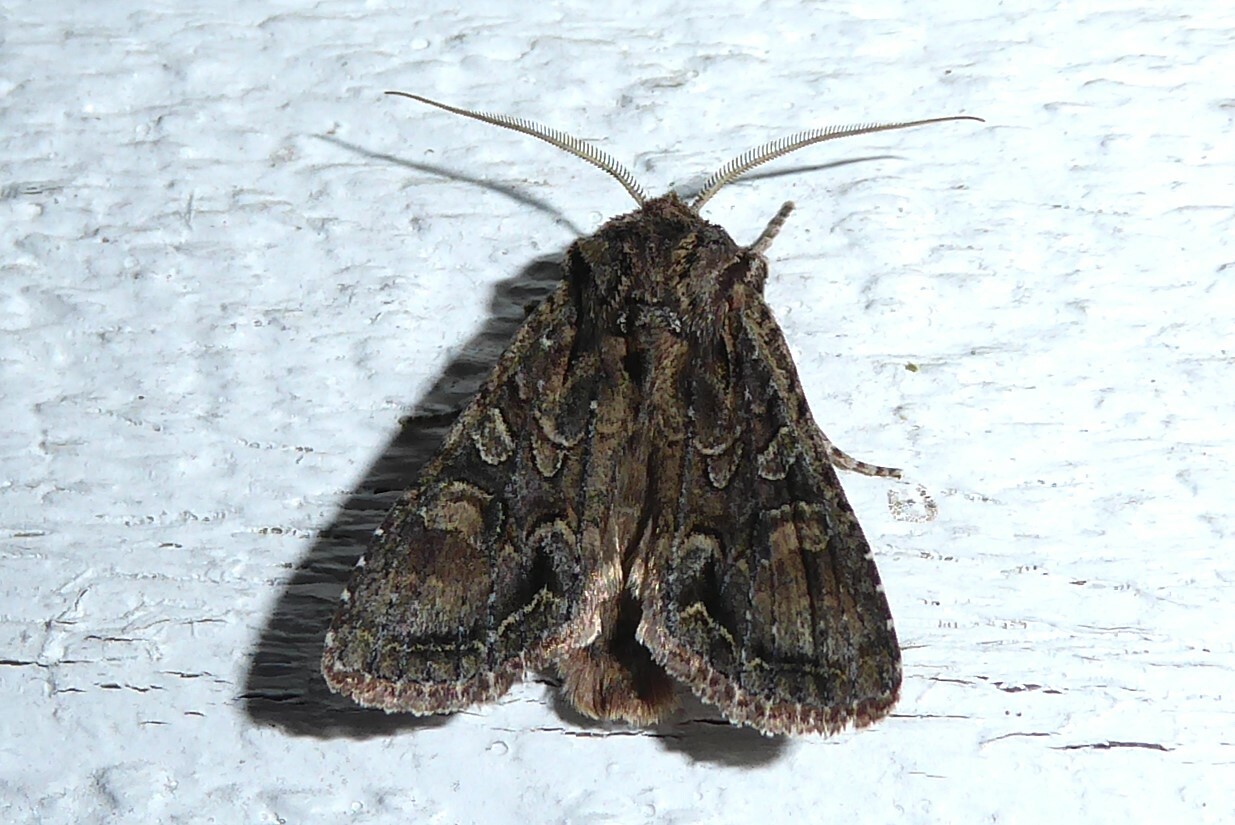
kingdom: Animalia
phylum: Arthropoda
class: Insecta
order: Lepidoptera
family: Noctuidae
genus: Ichneutica
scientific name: Ichneutica mutans
